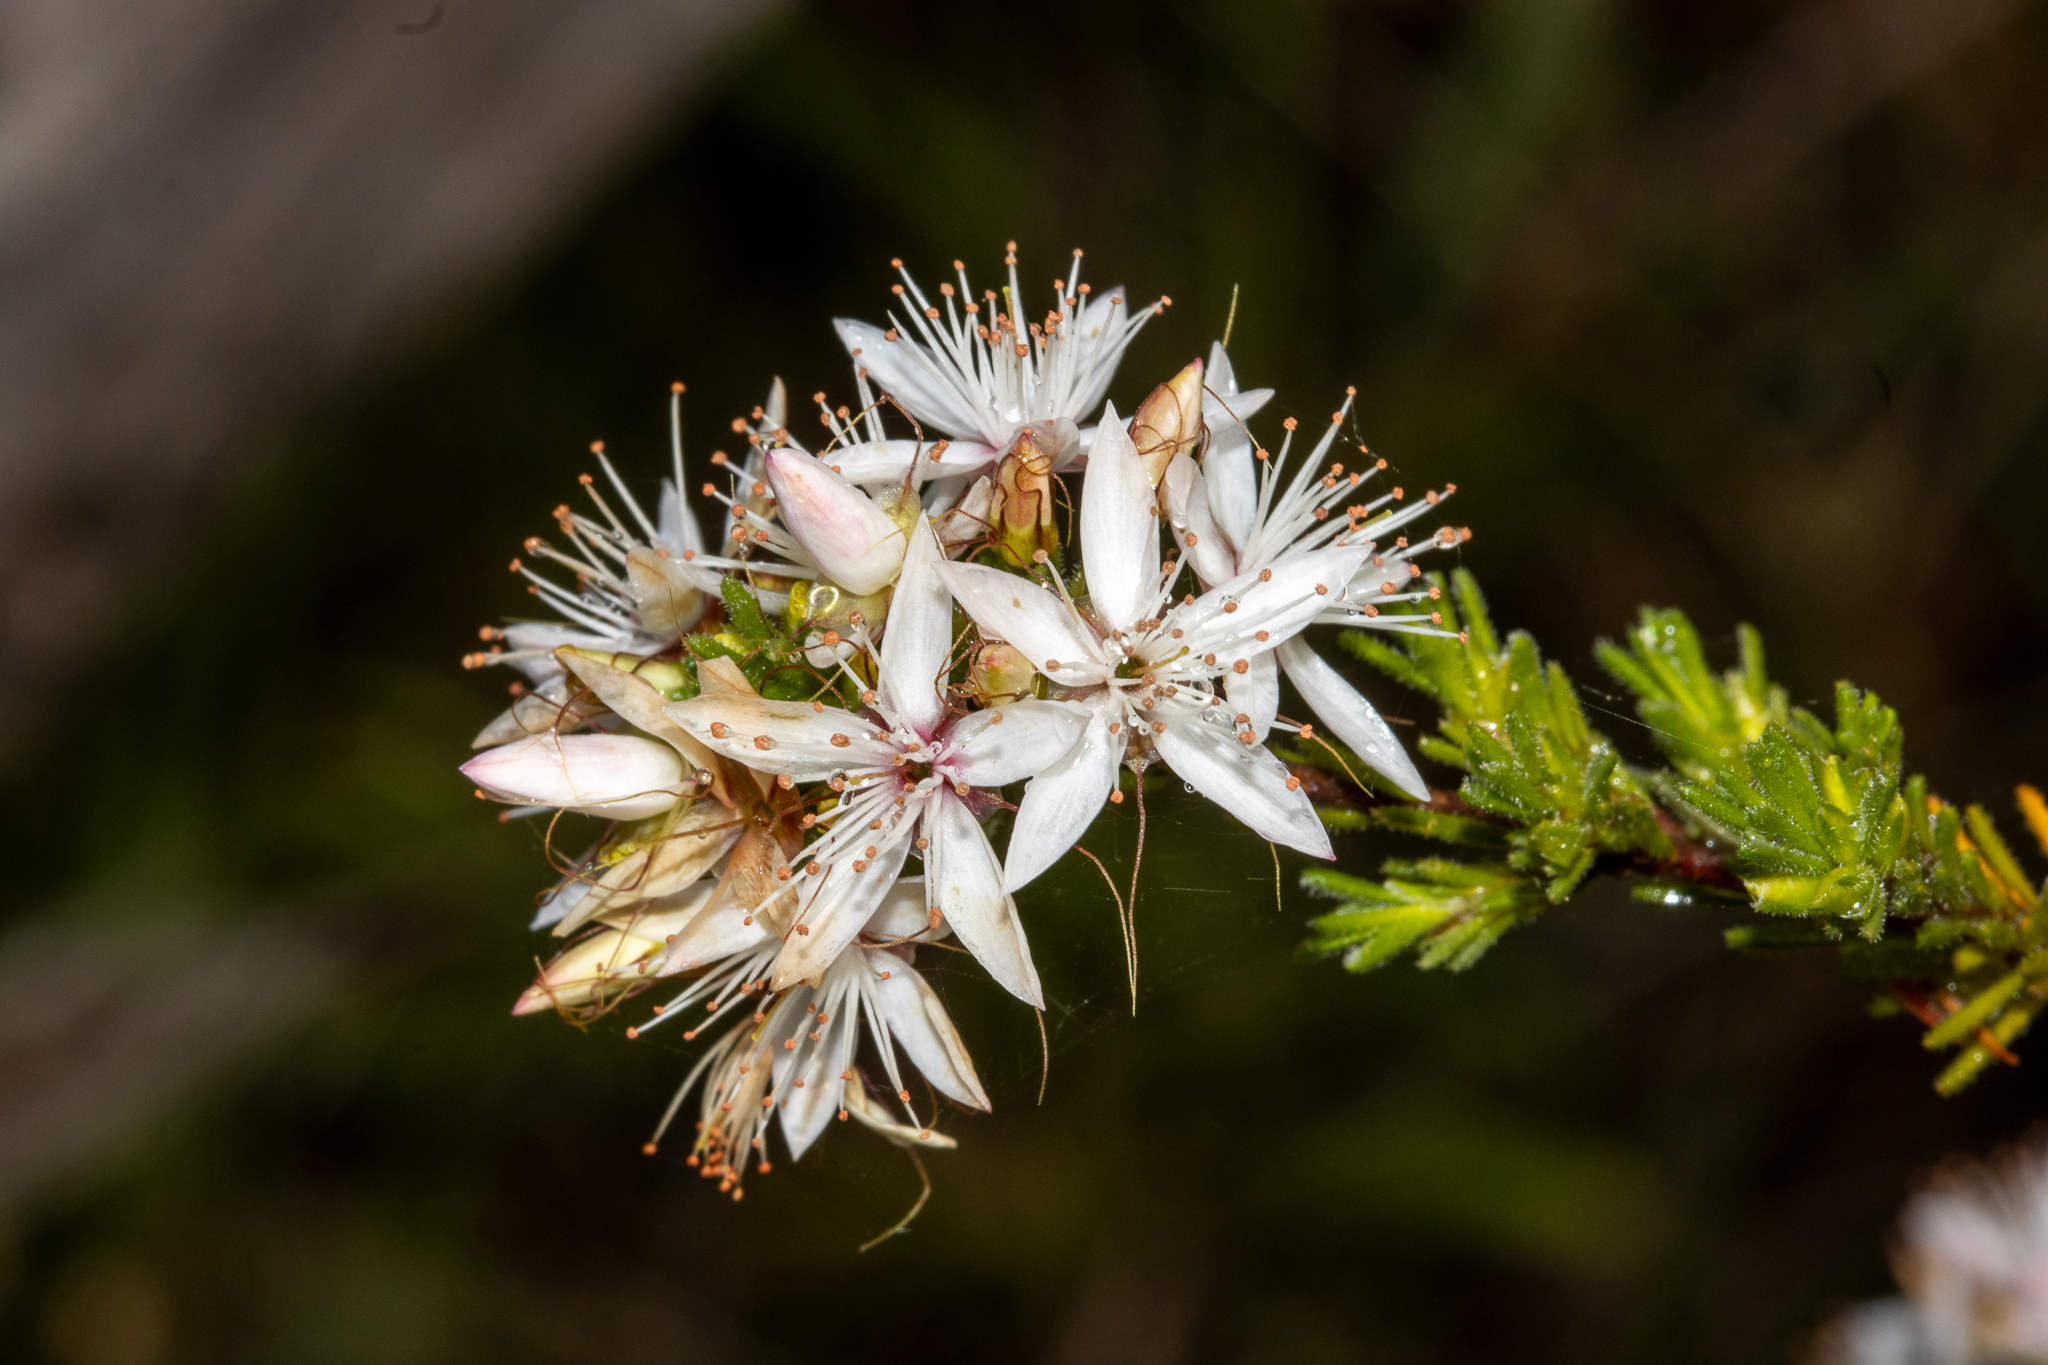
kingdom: Plantae
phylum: Tracheophyta
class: Magnoliopsida
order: Myrtales
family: Myrtaceae
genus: Calytrix
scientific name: Calytrix tetragona
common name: Common fringe myrtle
